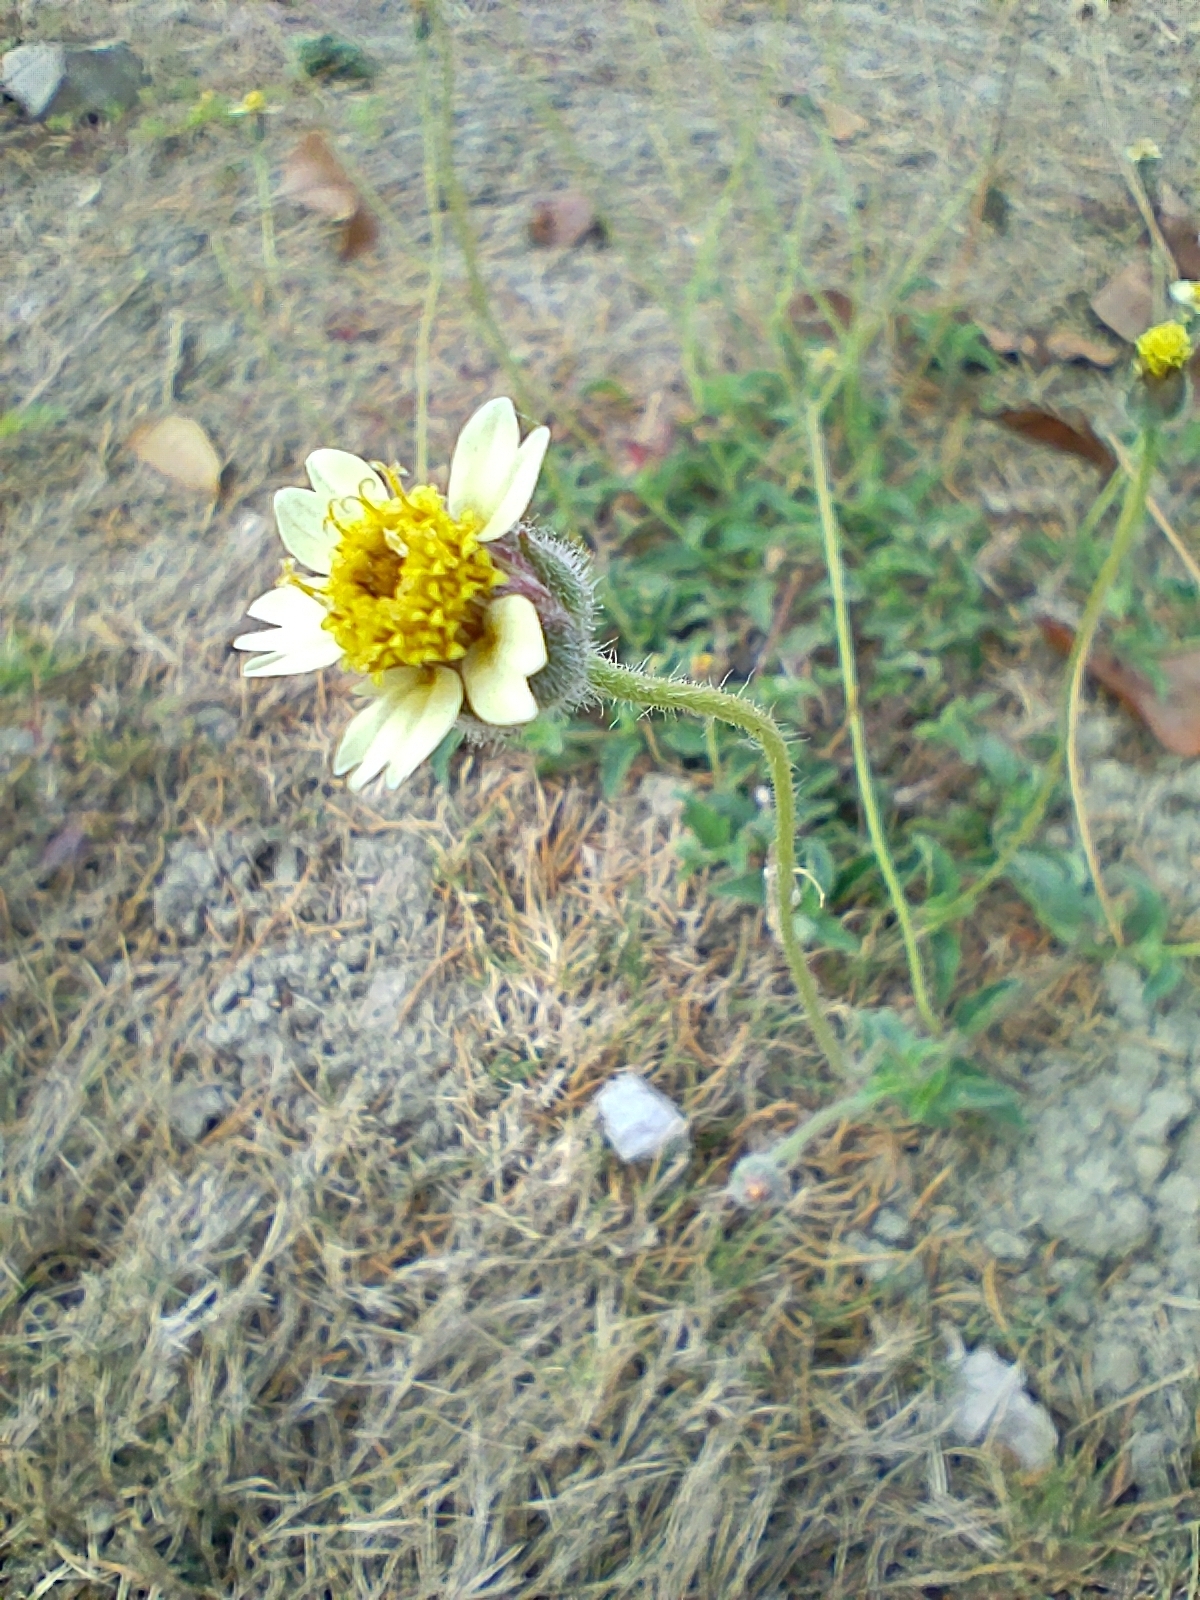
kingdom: Plantae
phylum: Tracheophyta
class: Magnoliopsida
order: Asterales
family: Asteraceae
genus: Tridax
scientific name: Tridax procumbens
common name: Coatbuttons
